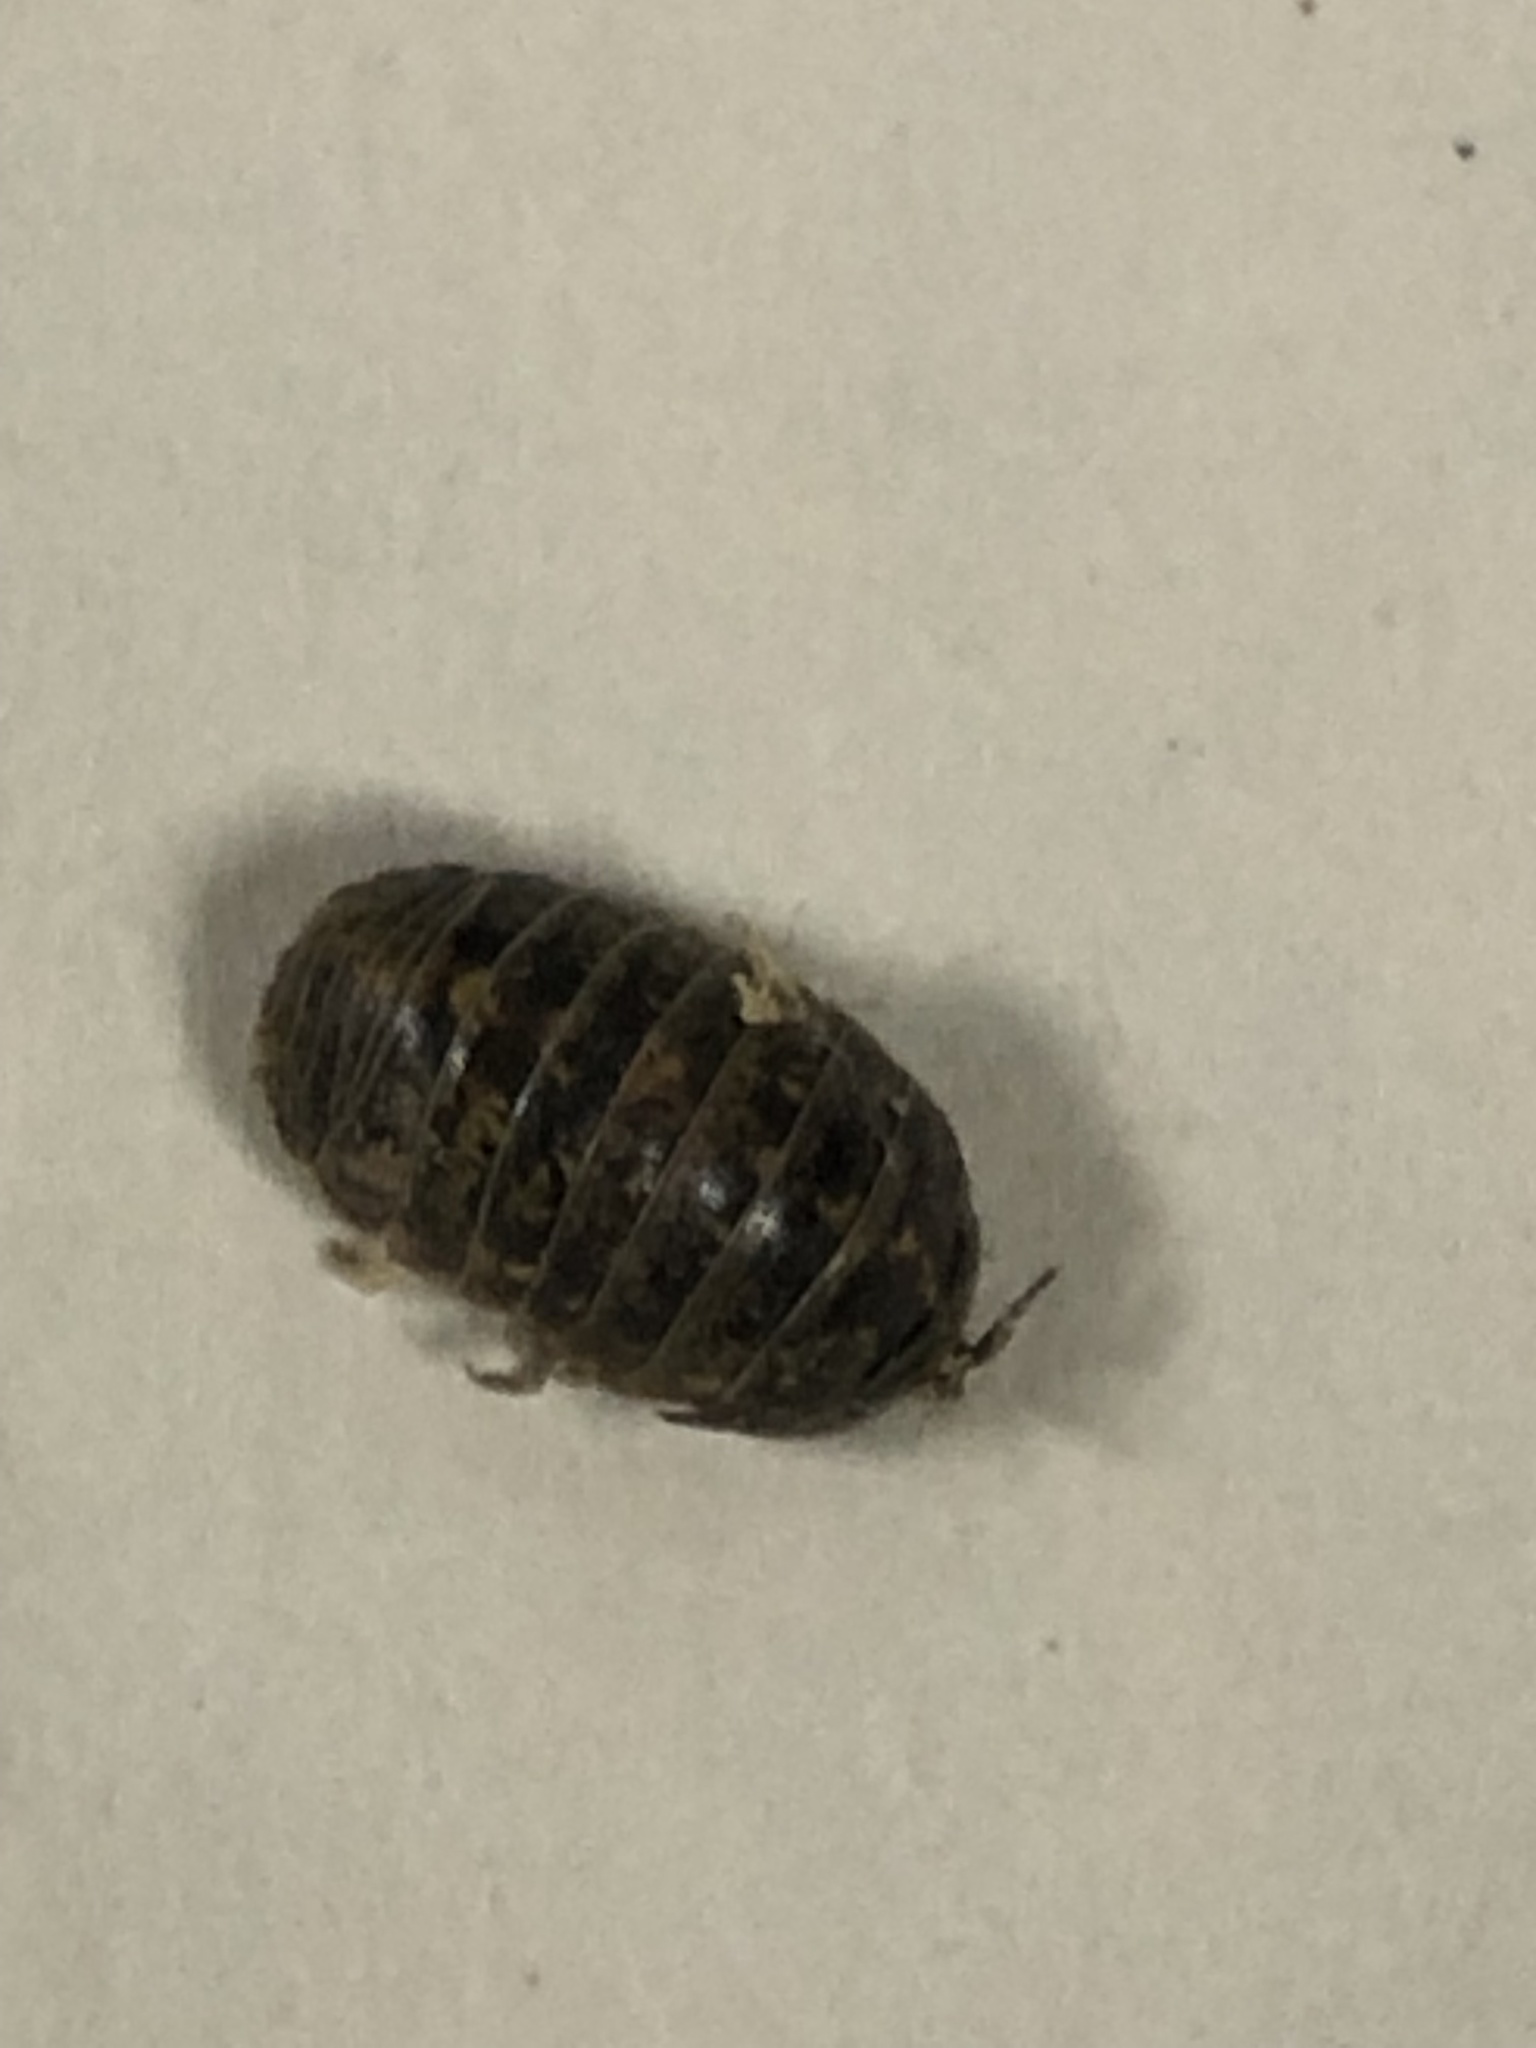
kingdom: Animalia
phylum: Arthropoda
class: Malacostraca
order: Isopoda
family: Trachelipodidae
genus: Trachelipus
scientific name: Trachelipus rathkii
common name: Isopod
